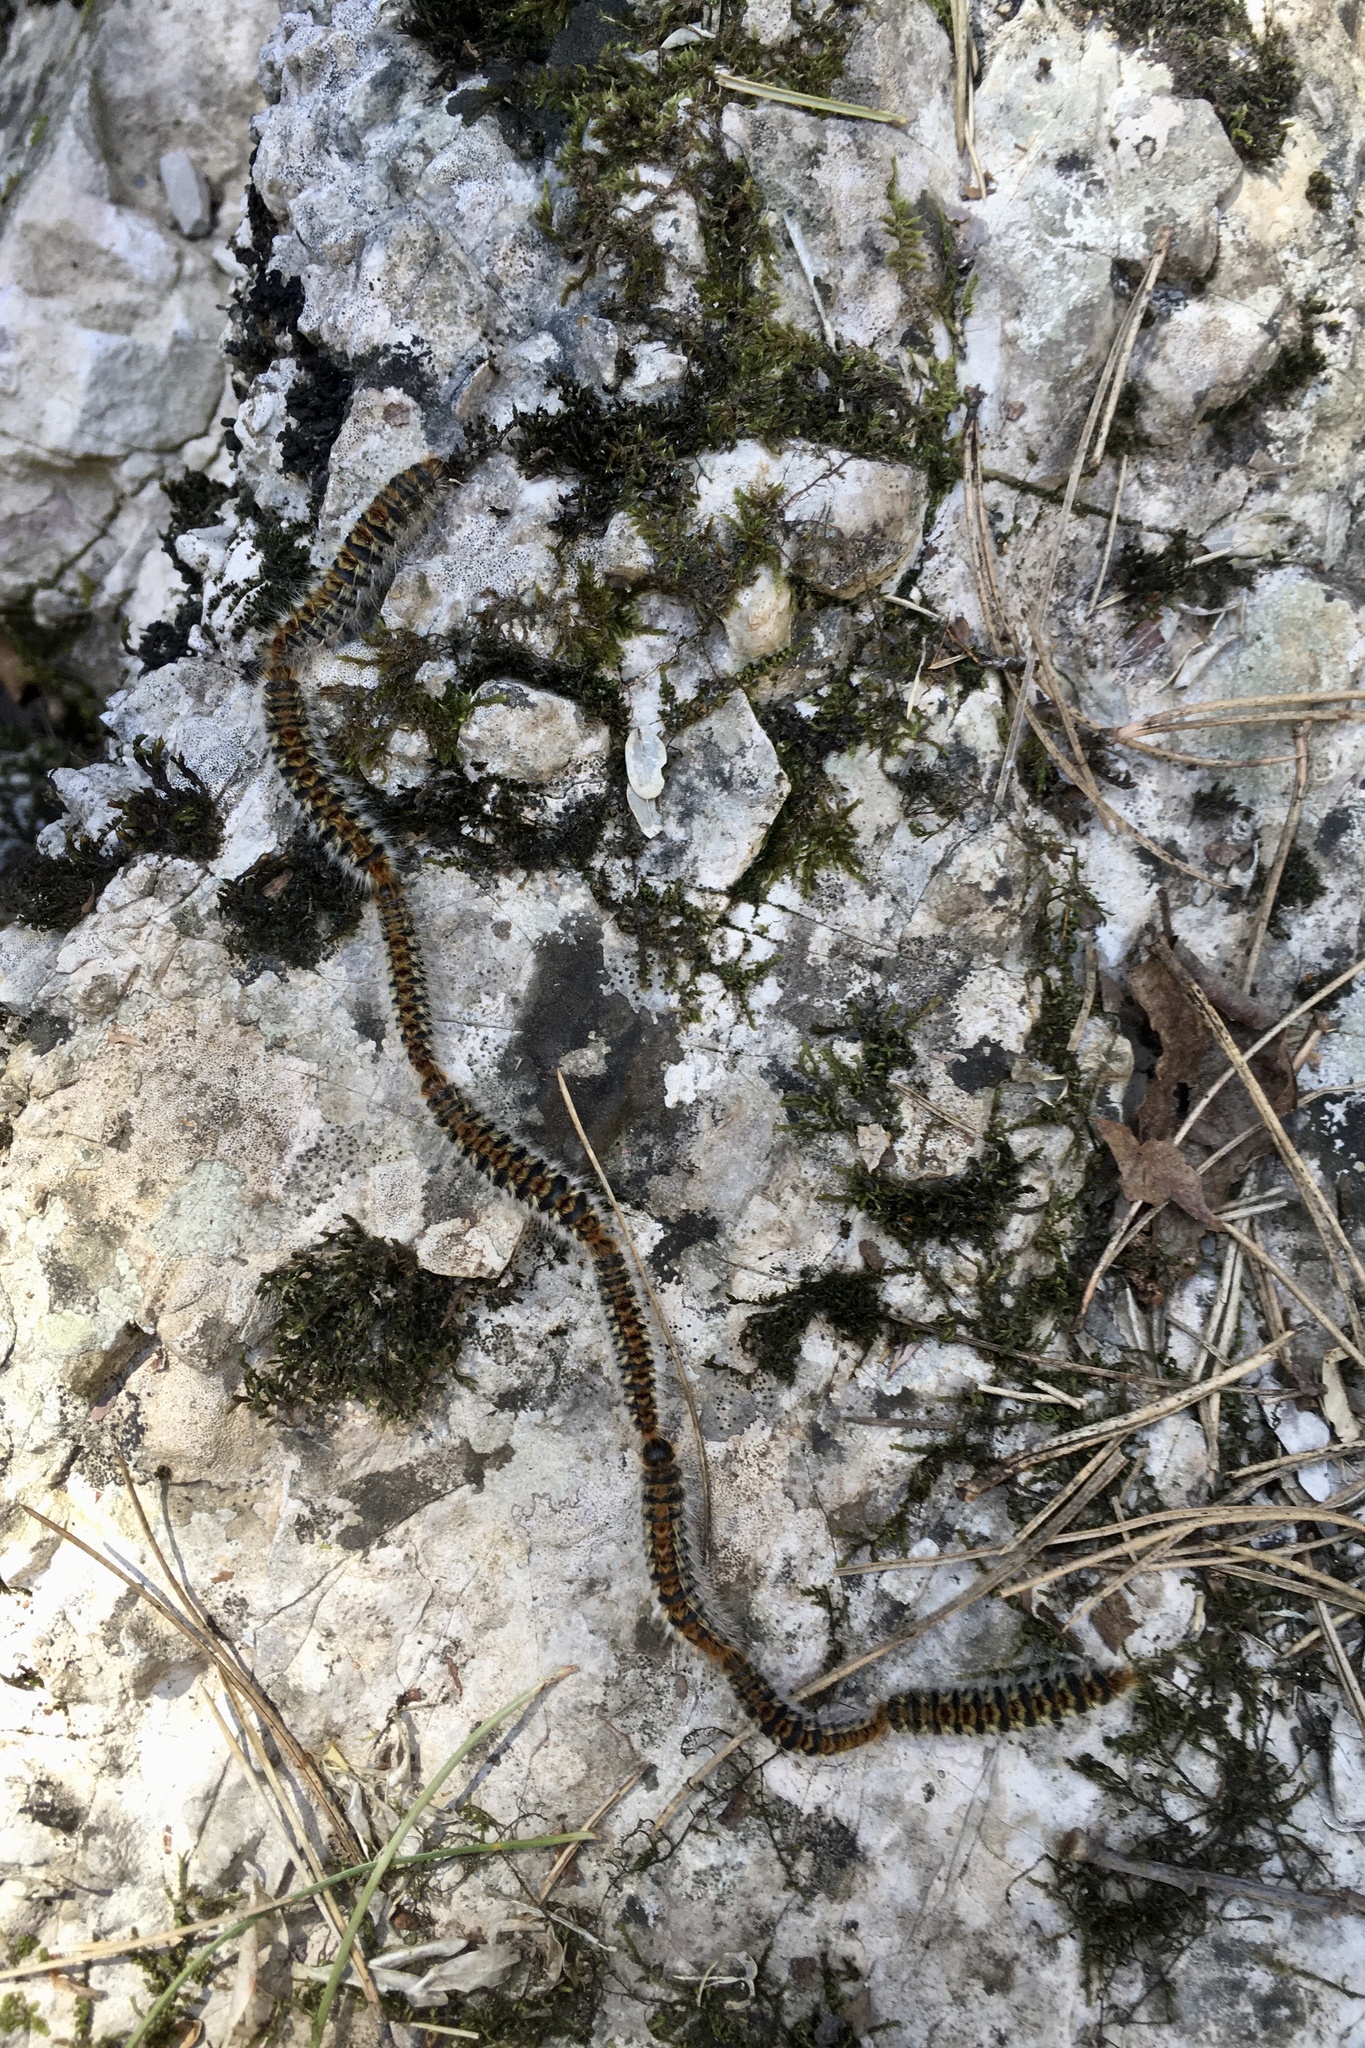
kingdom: Animalia
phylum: Arthropoda
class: Insecta
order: Lepidoptera
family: Notodontidae
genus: Thaumetopoea
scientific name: Thaumetopoea pityocampa
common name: Pine processionary
